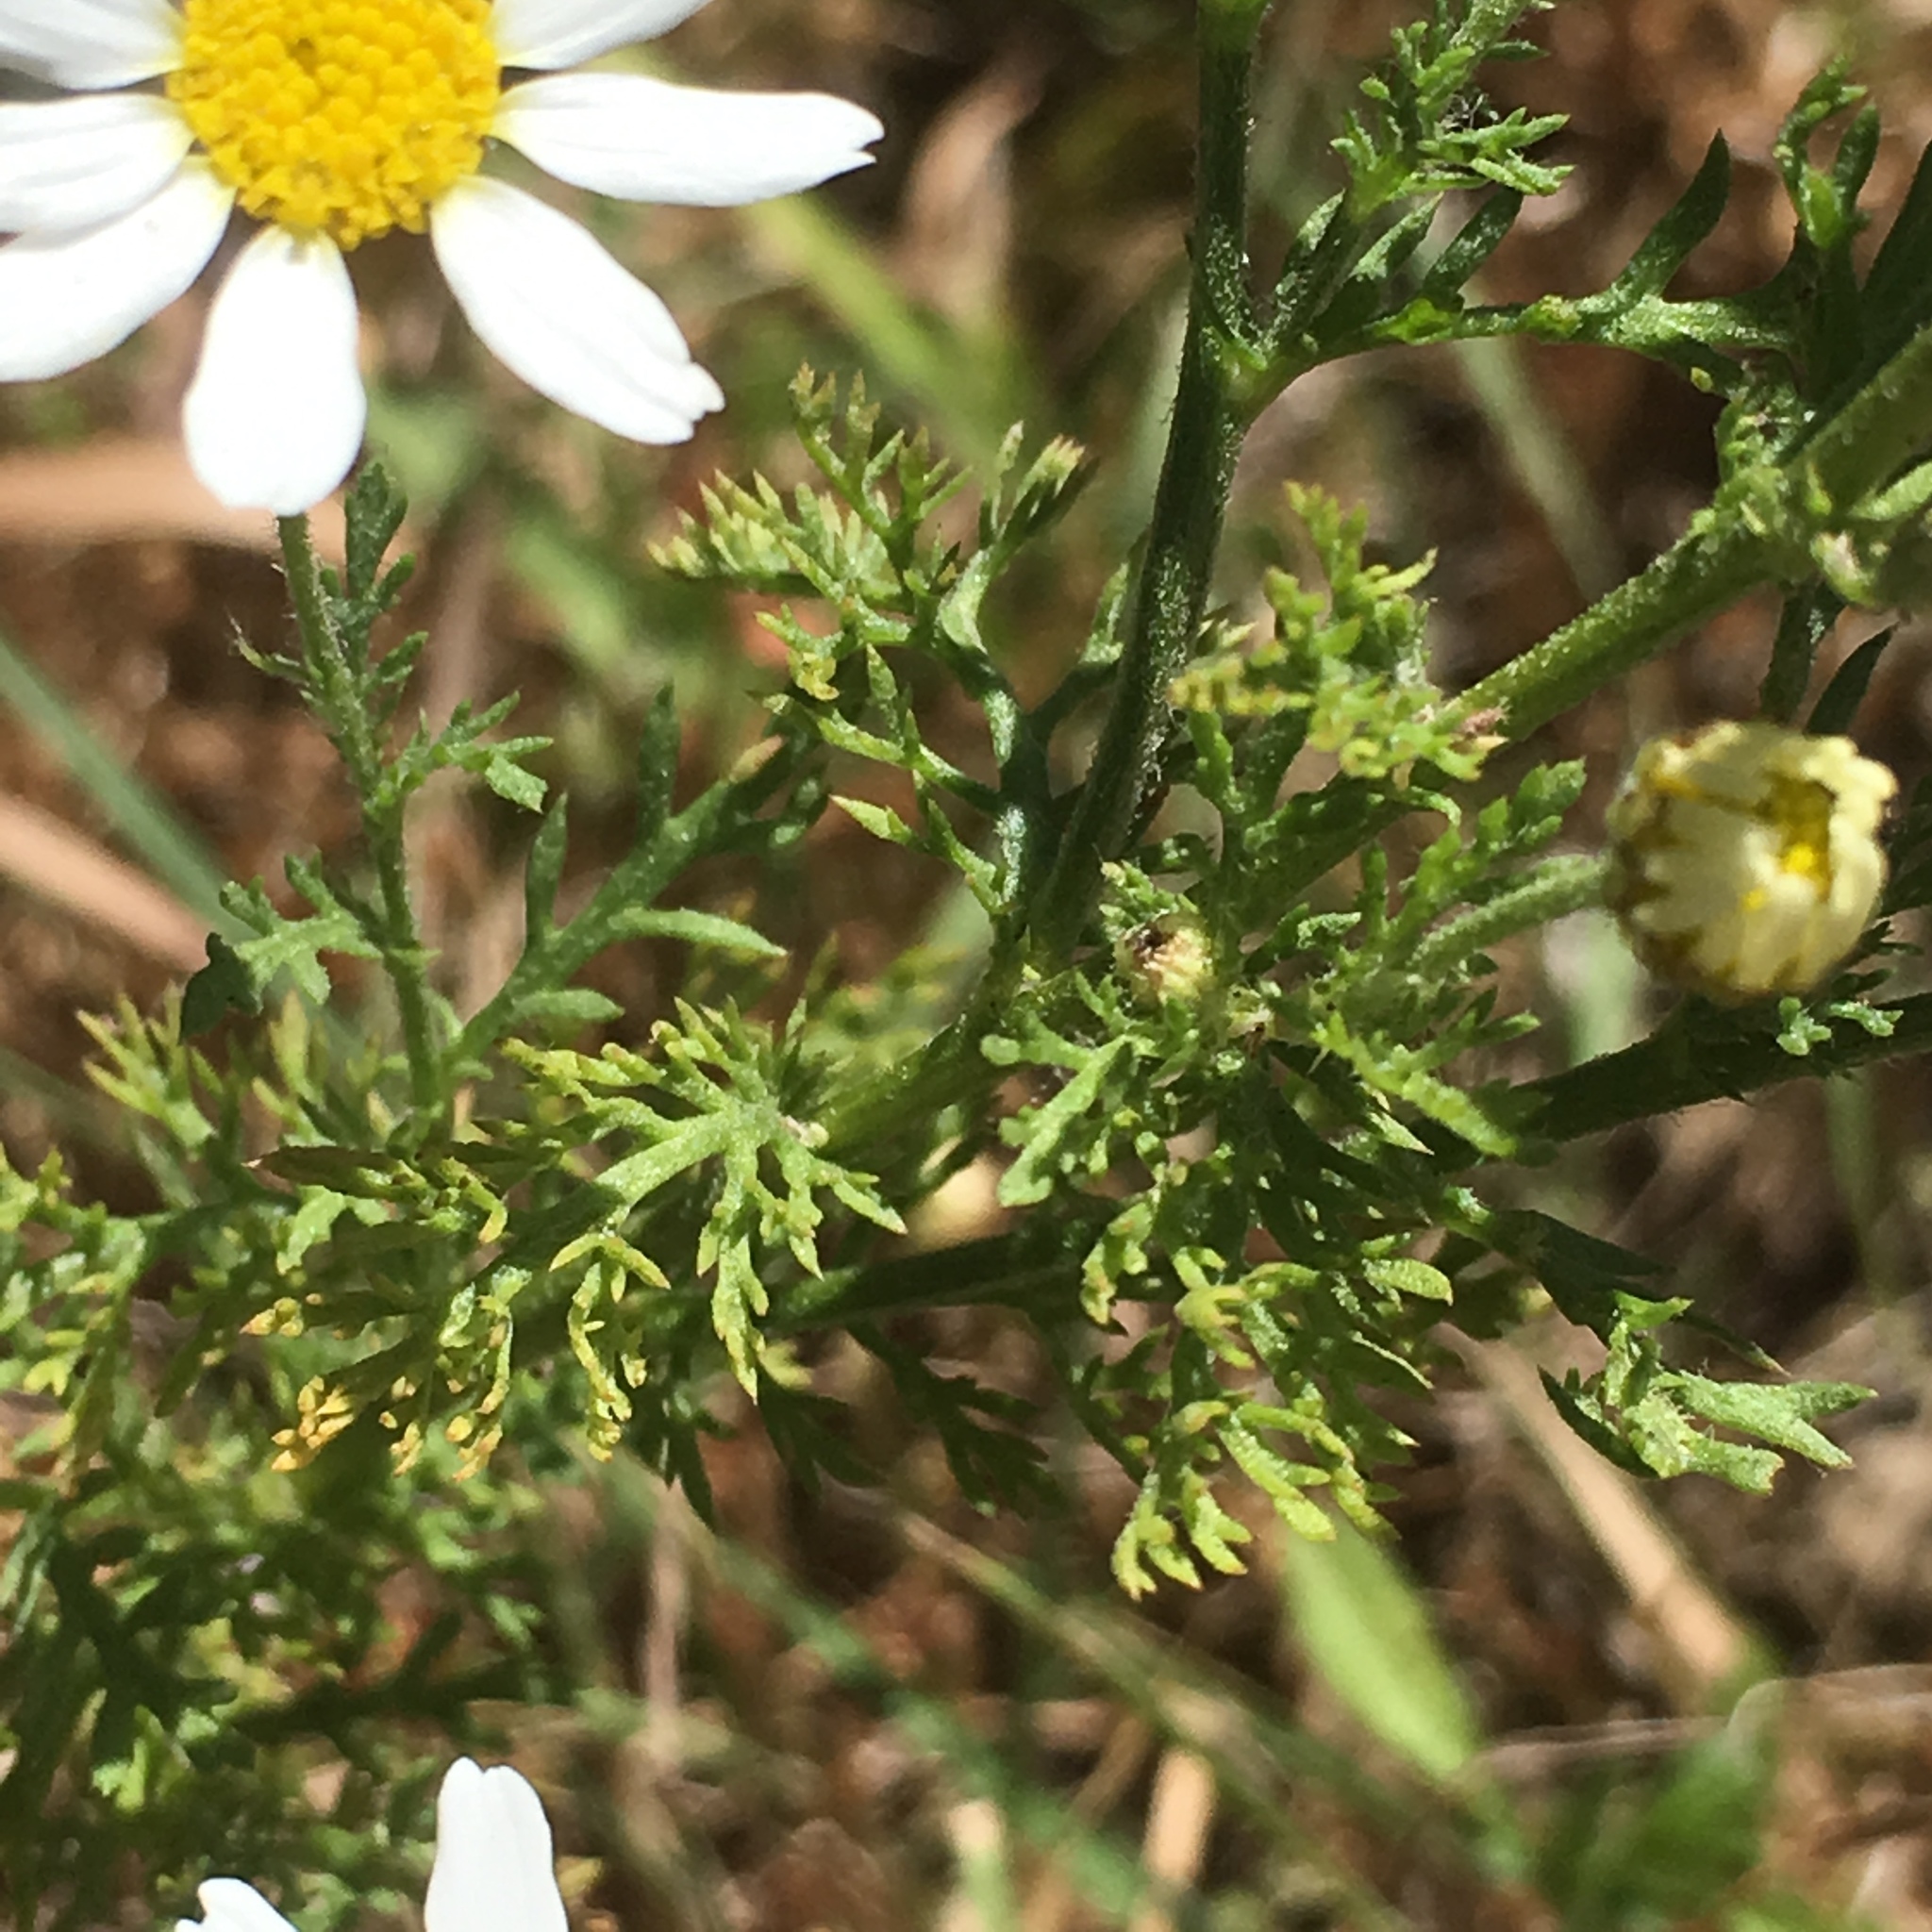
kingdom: Plantae
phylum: Tracheophyta
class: Magnoliopsida
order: Asterales
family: Asteraceae
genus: Anthemis
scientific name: Anthemis cotula
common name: Stinking chamomile
